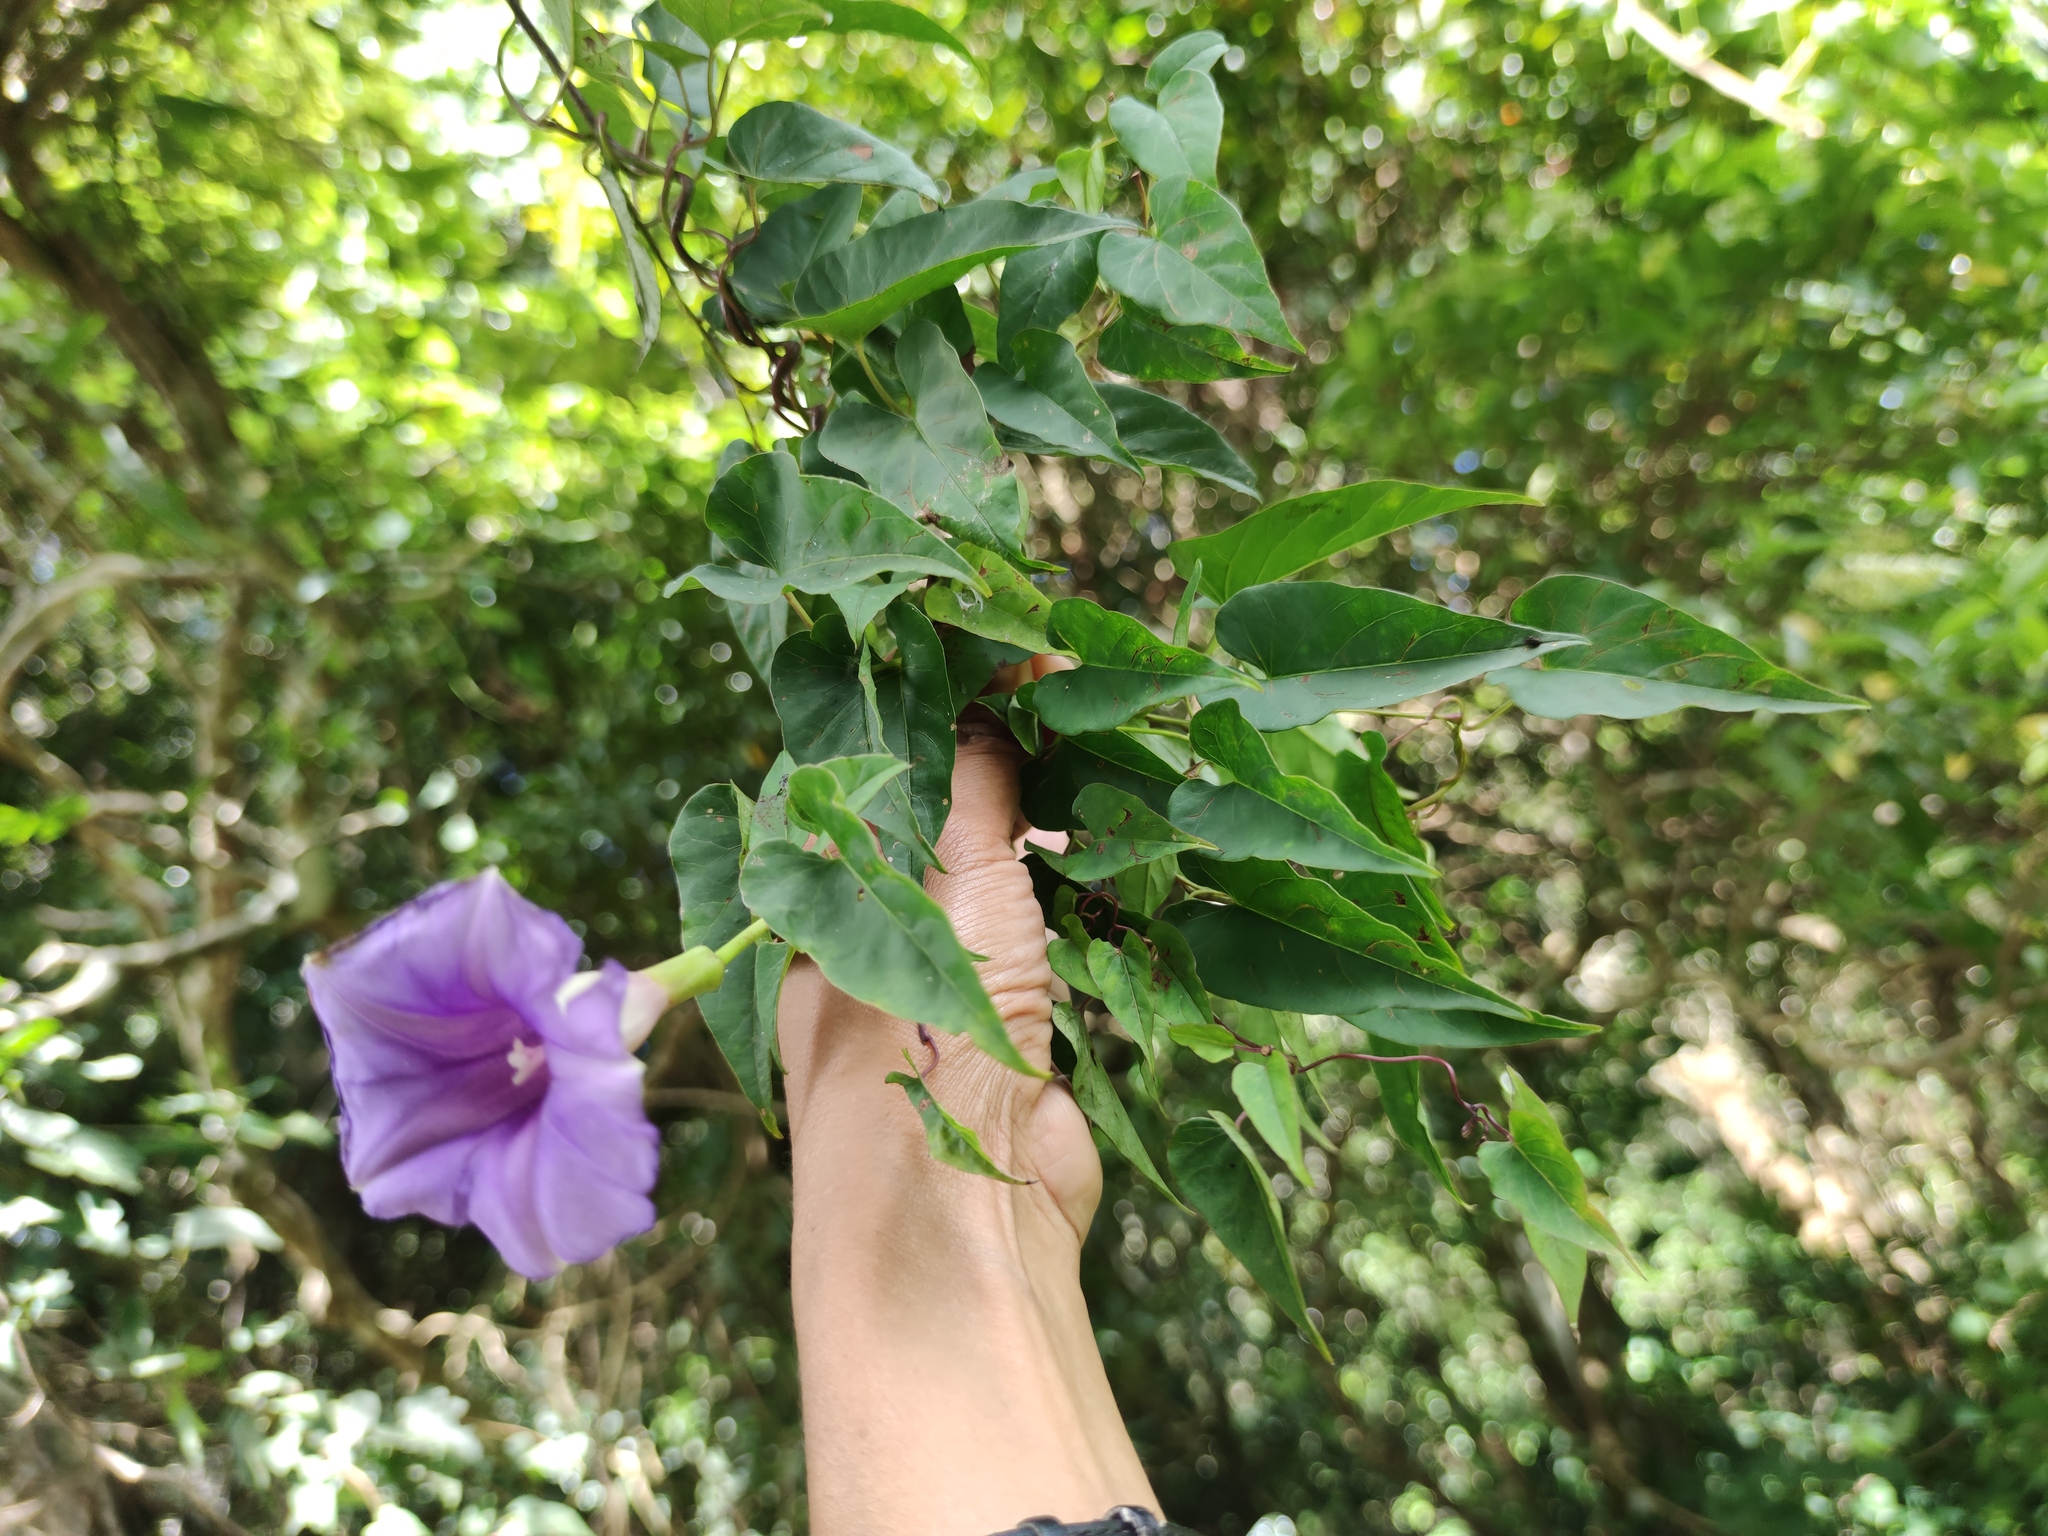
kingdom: Plantae
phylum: Tracheophyta
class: Magnoliopsida
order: Solanales
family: Convolvulaceae
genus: Ipomoea
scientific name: Ipomoea lindenii
